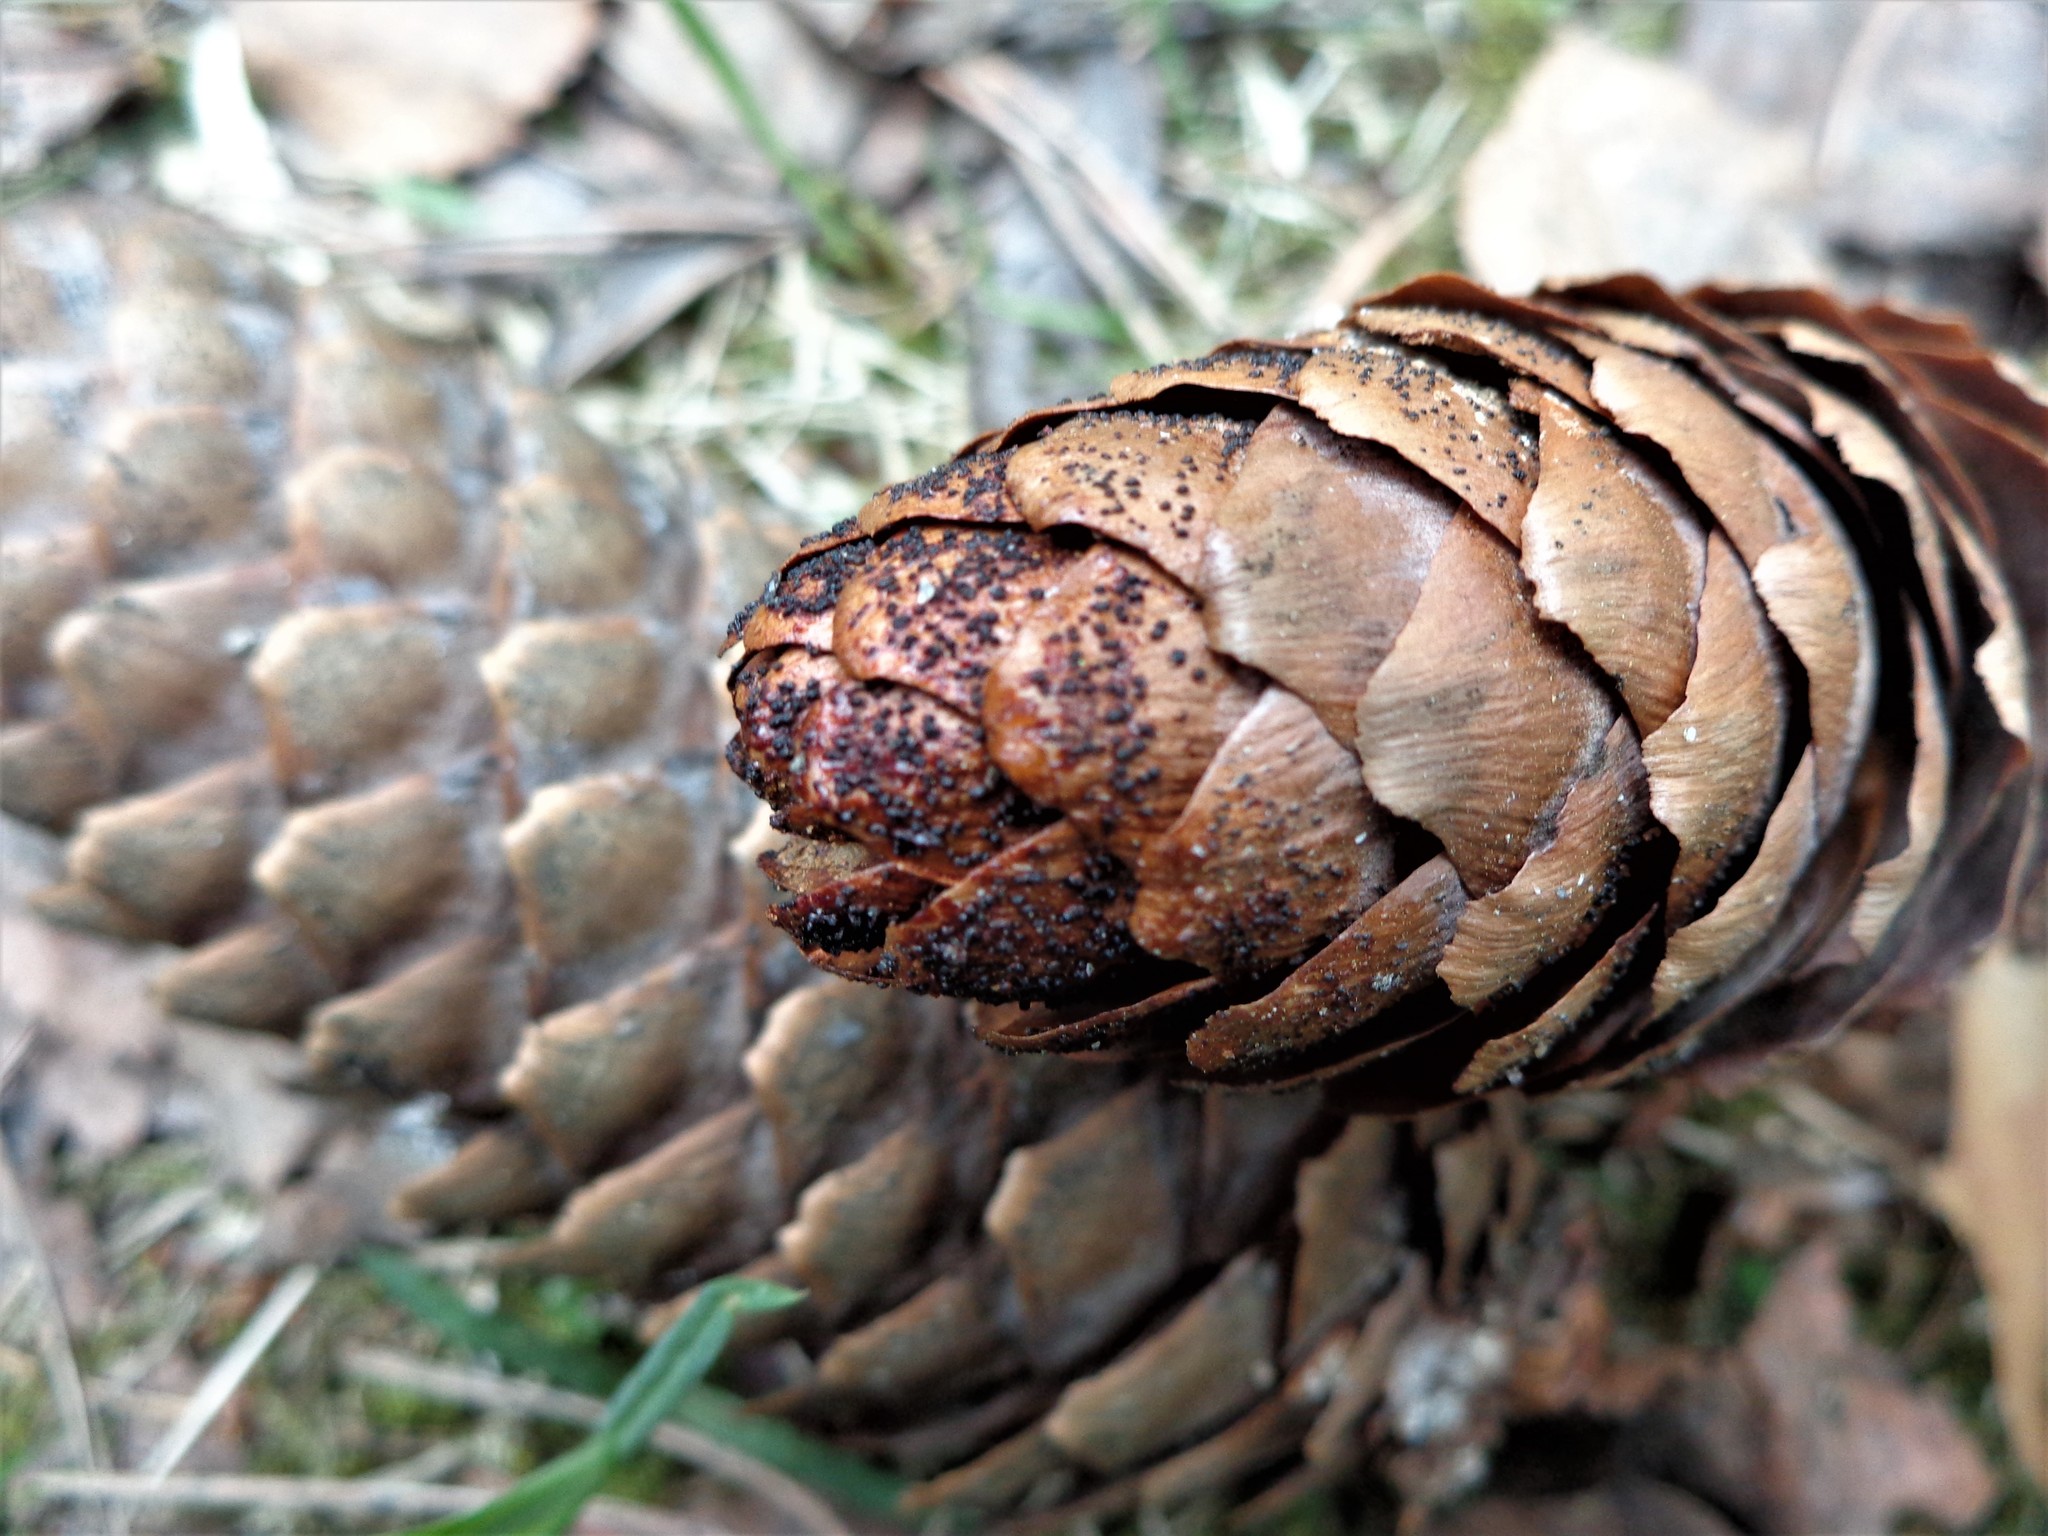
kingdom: Fungi
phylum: Ascomycota
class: Dothideomycetes
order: Pleosporales
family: Melanommataceae
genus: Phragmotrichum
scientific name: Phragmotrichum chailletii
